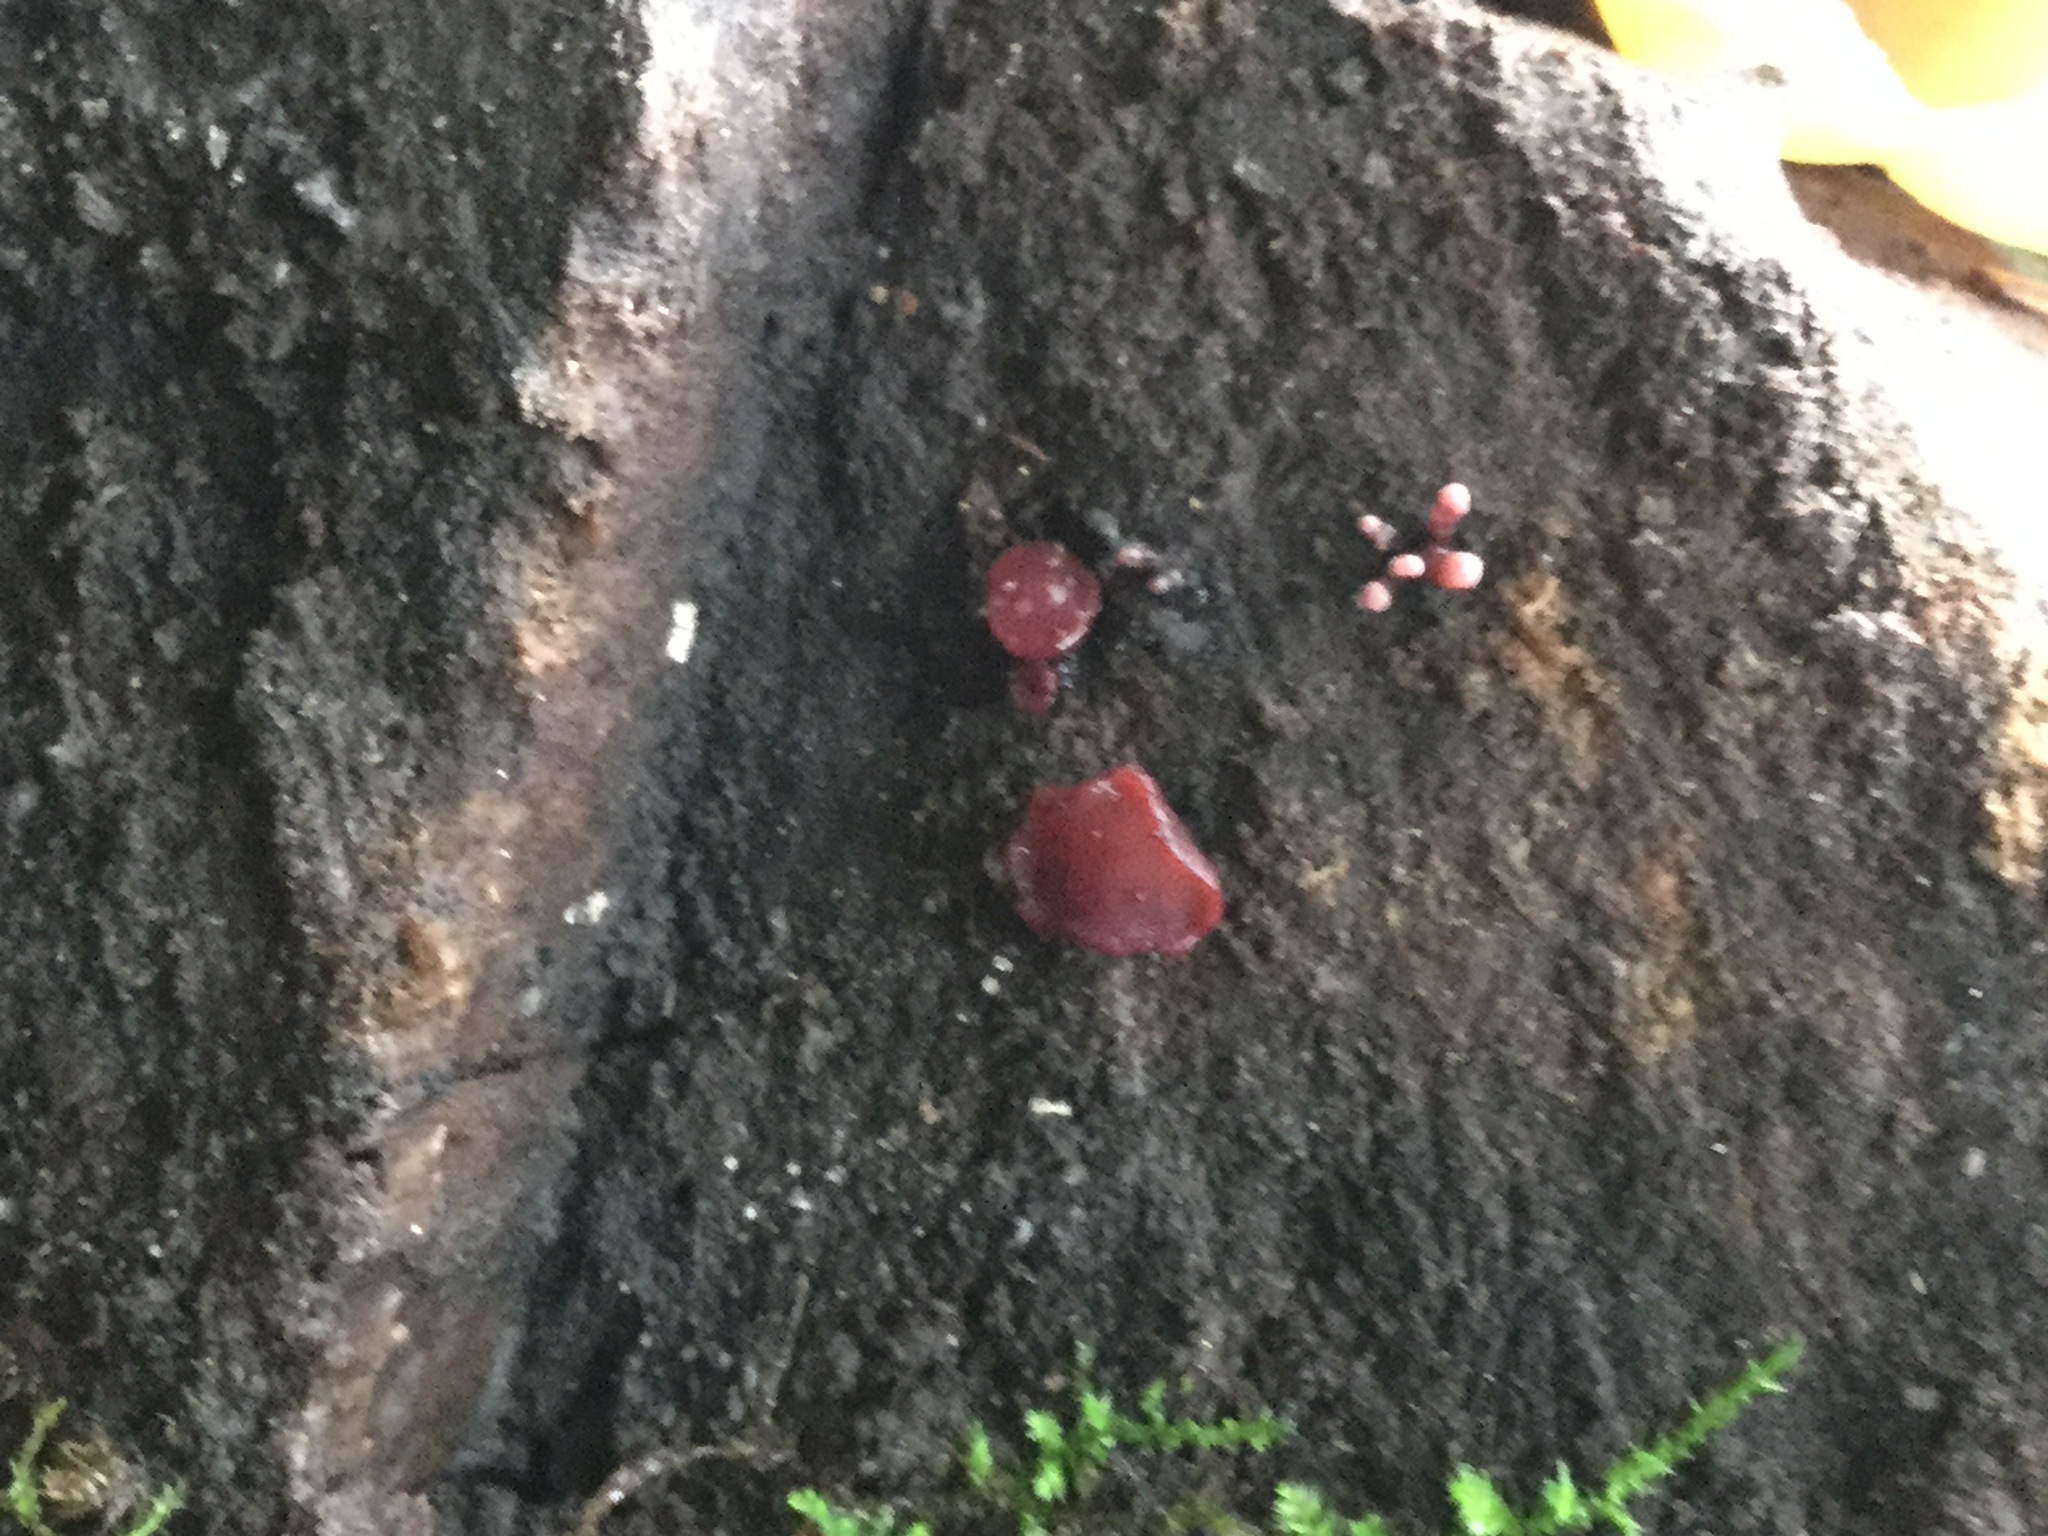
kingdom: Fungi
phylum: Ascomycota
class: Leotiomycetes
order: Helotiales
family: Gelatinodiscaceae
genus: Ascocoryne
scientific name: Ascocoryne sarcoides
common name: Purple jellydisc
